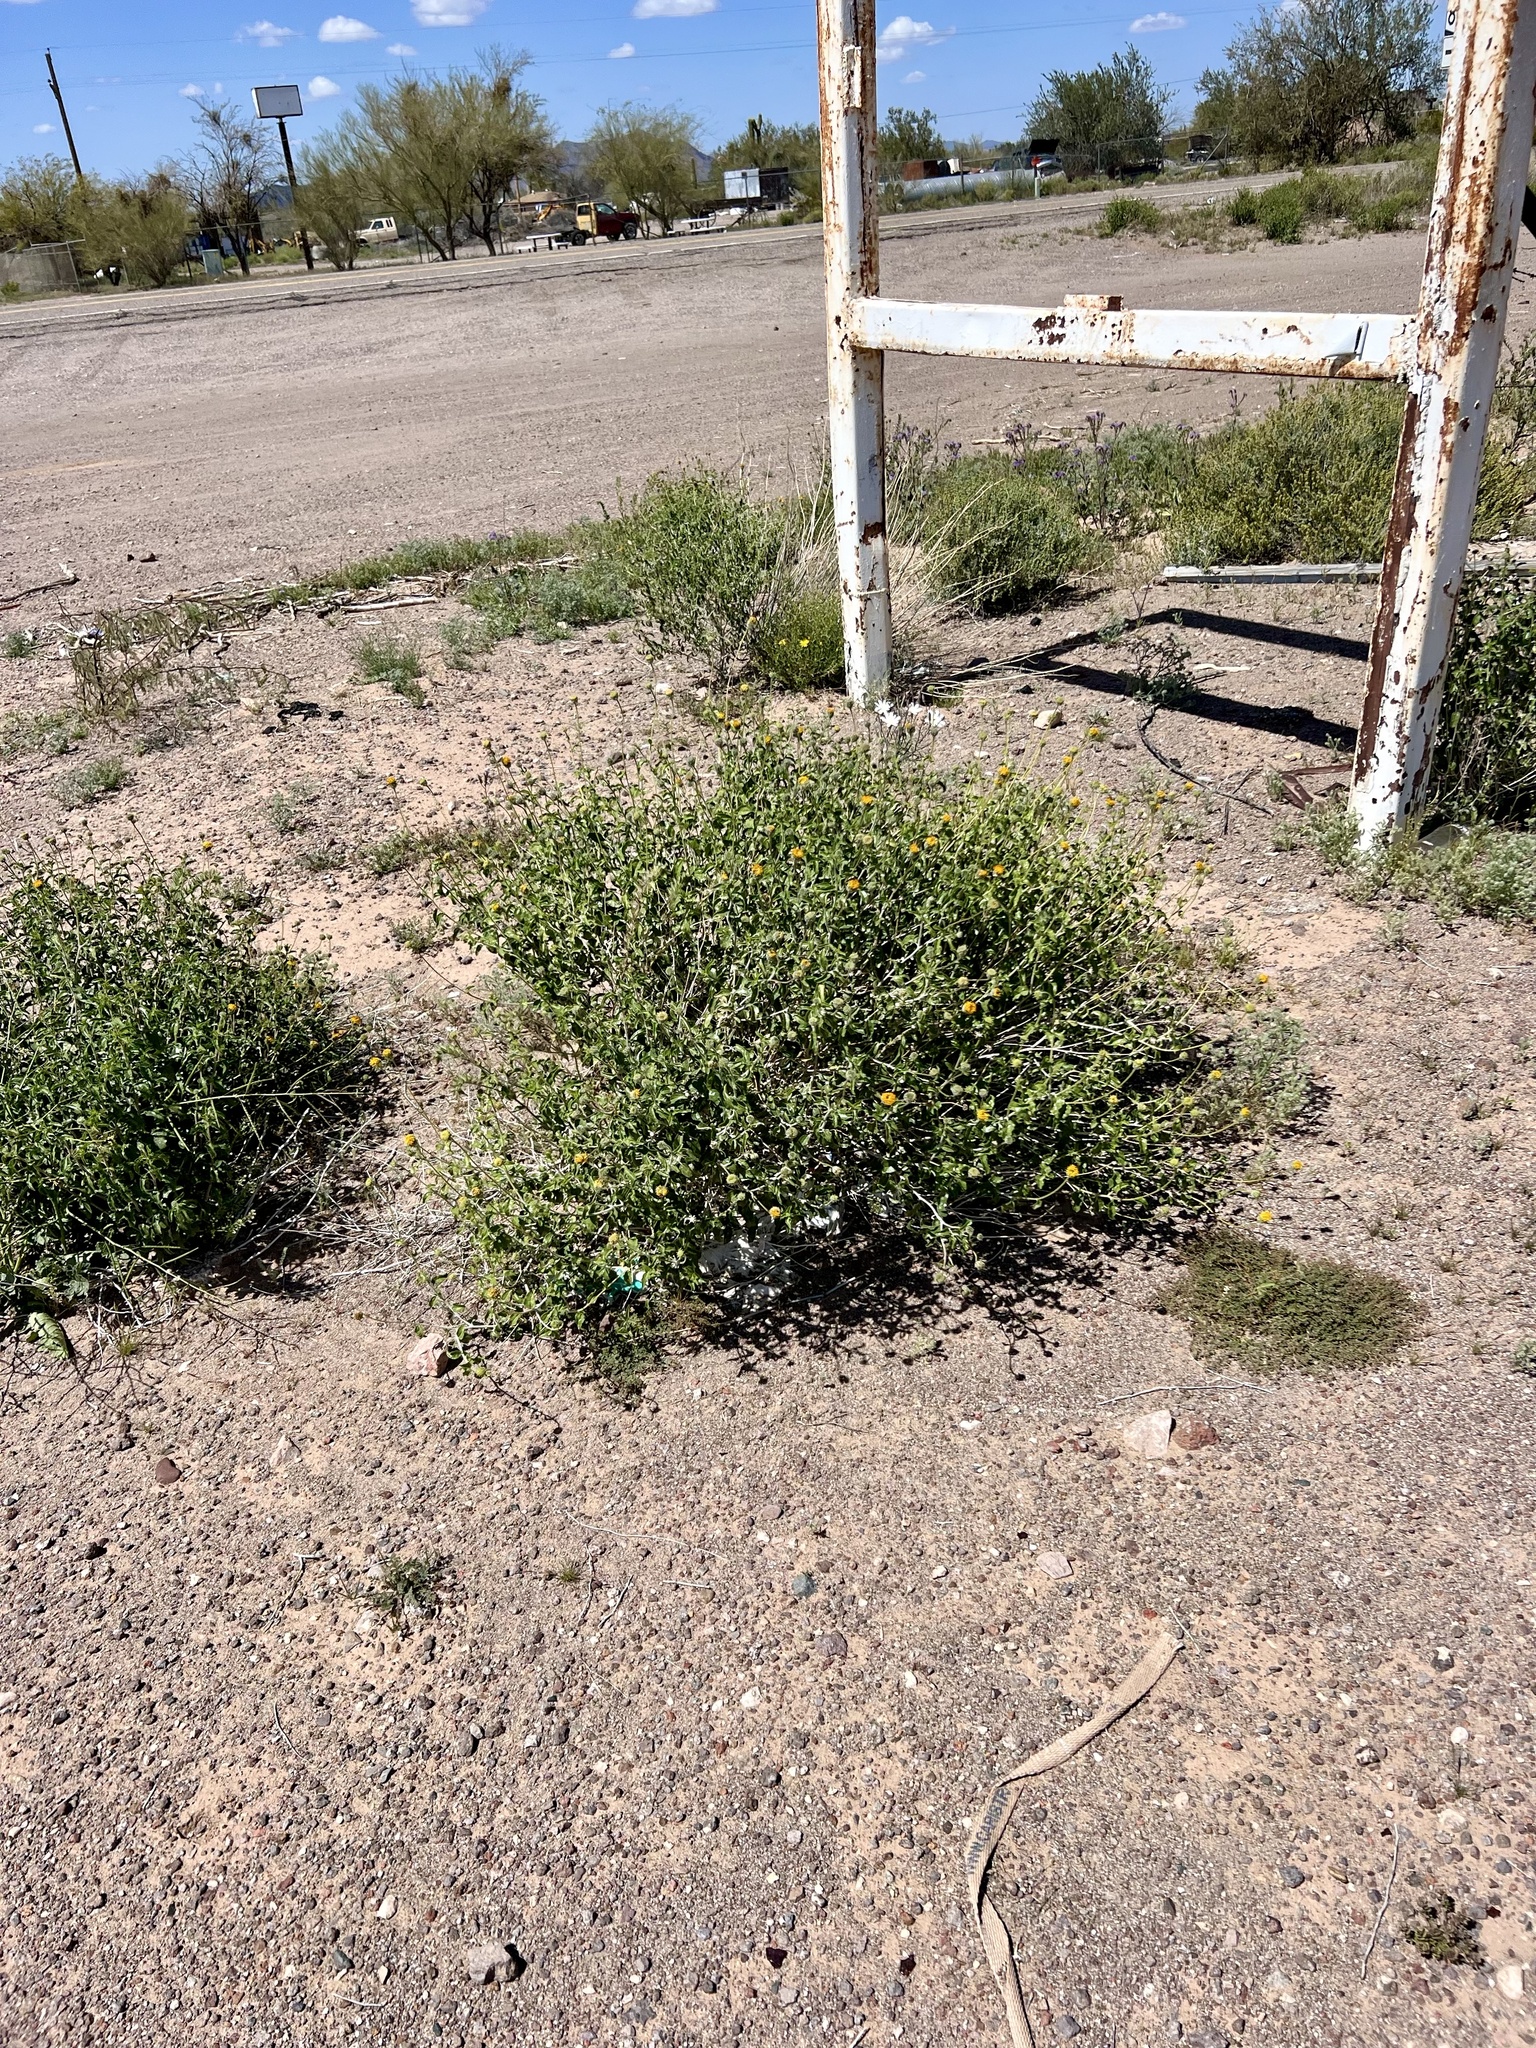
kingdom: Plantae
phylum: Tracheophyta
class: Magnoliopsida
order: Asterales
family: Asteraceae
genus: Encelia
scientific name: Encelia frutescens
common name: Bush encelia
